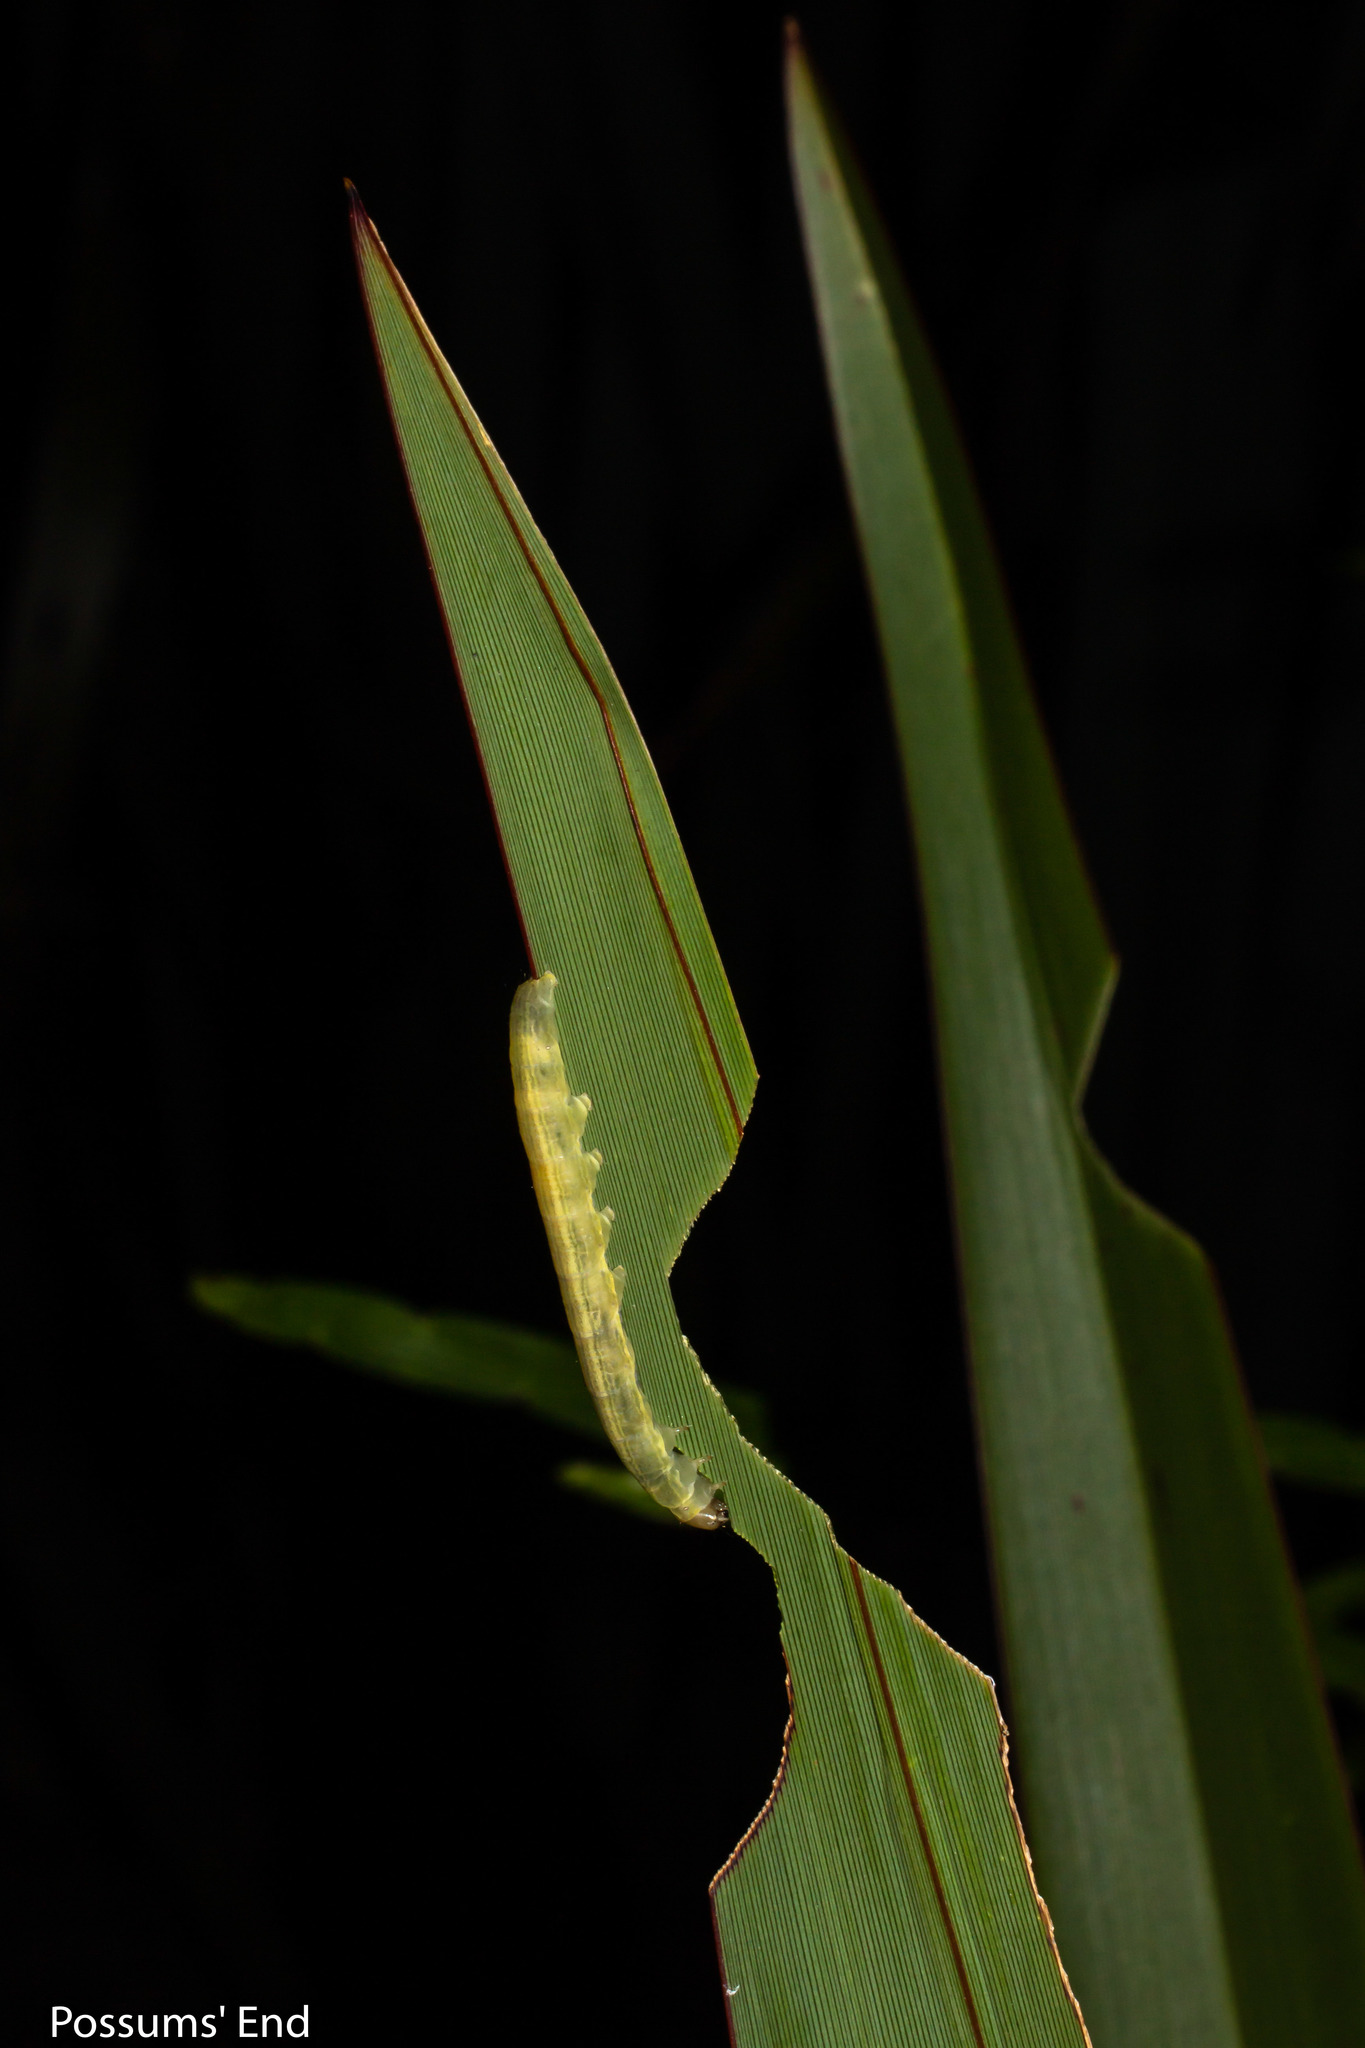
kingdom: Animalia
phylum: Arthropoda
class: Insecta
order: Lepidoptera
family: Noctuidae
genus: Ichneutica
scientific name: Ichneutica
